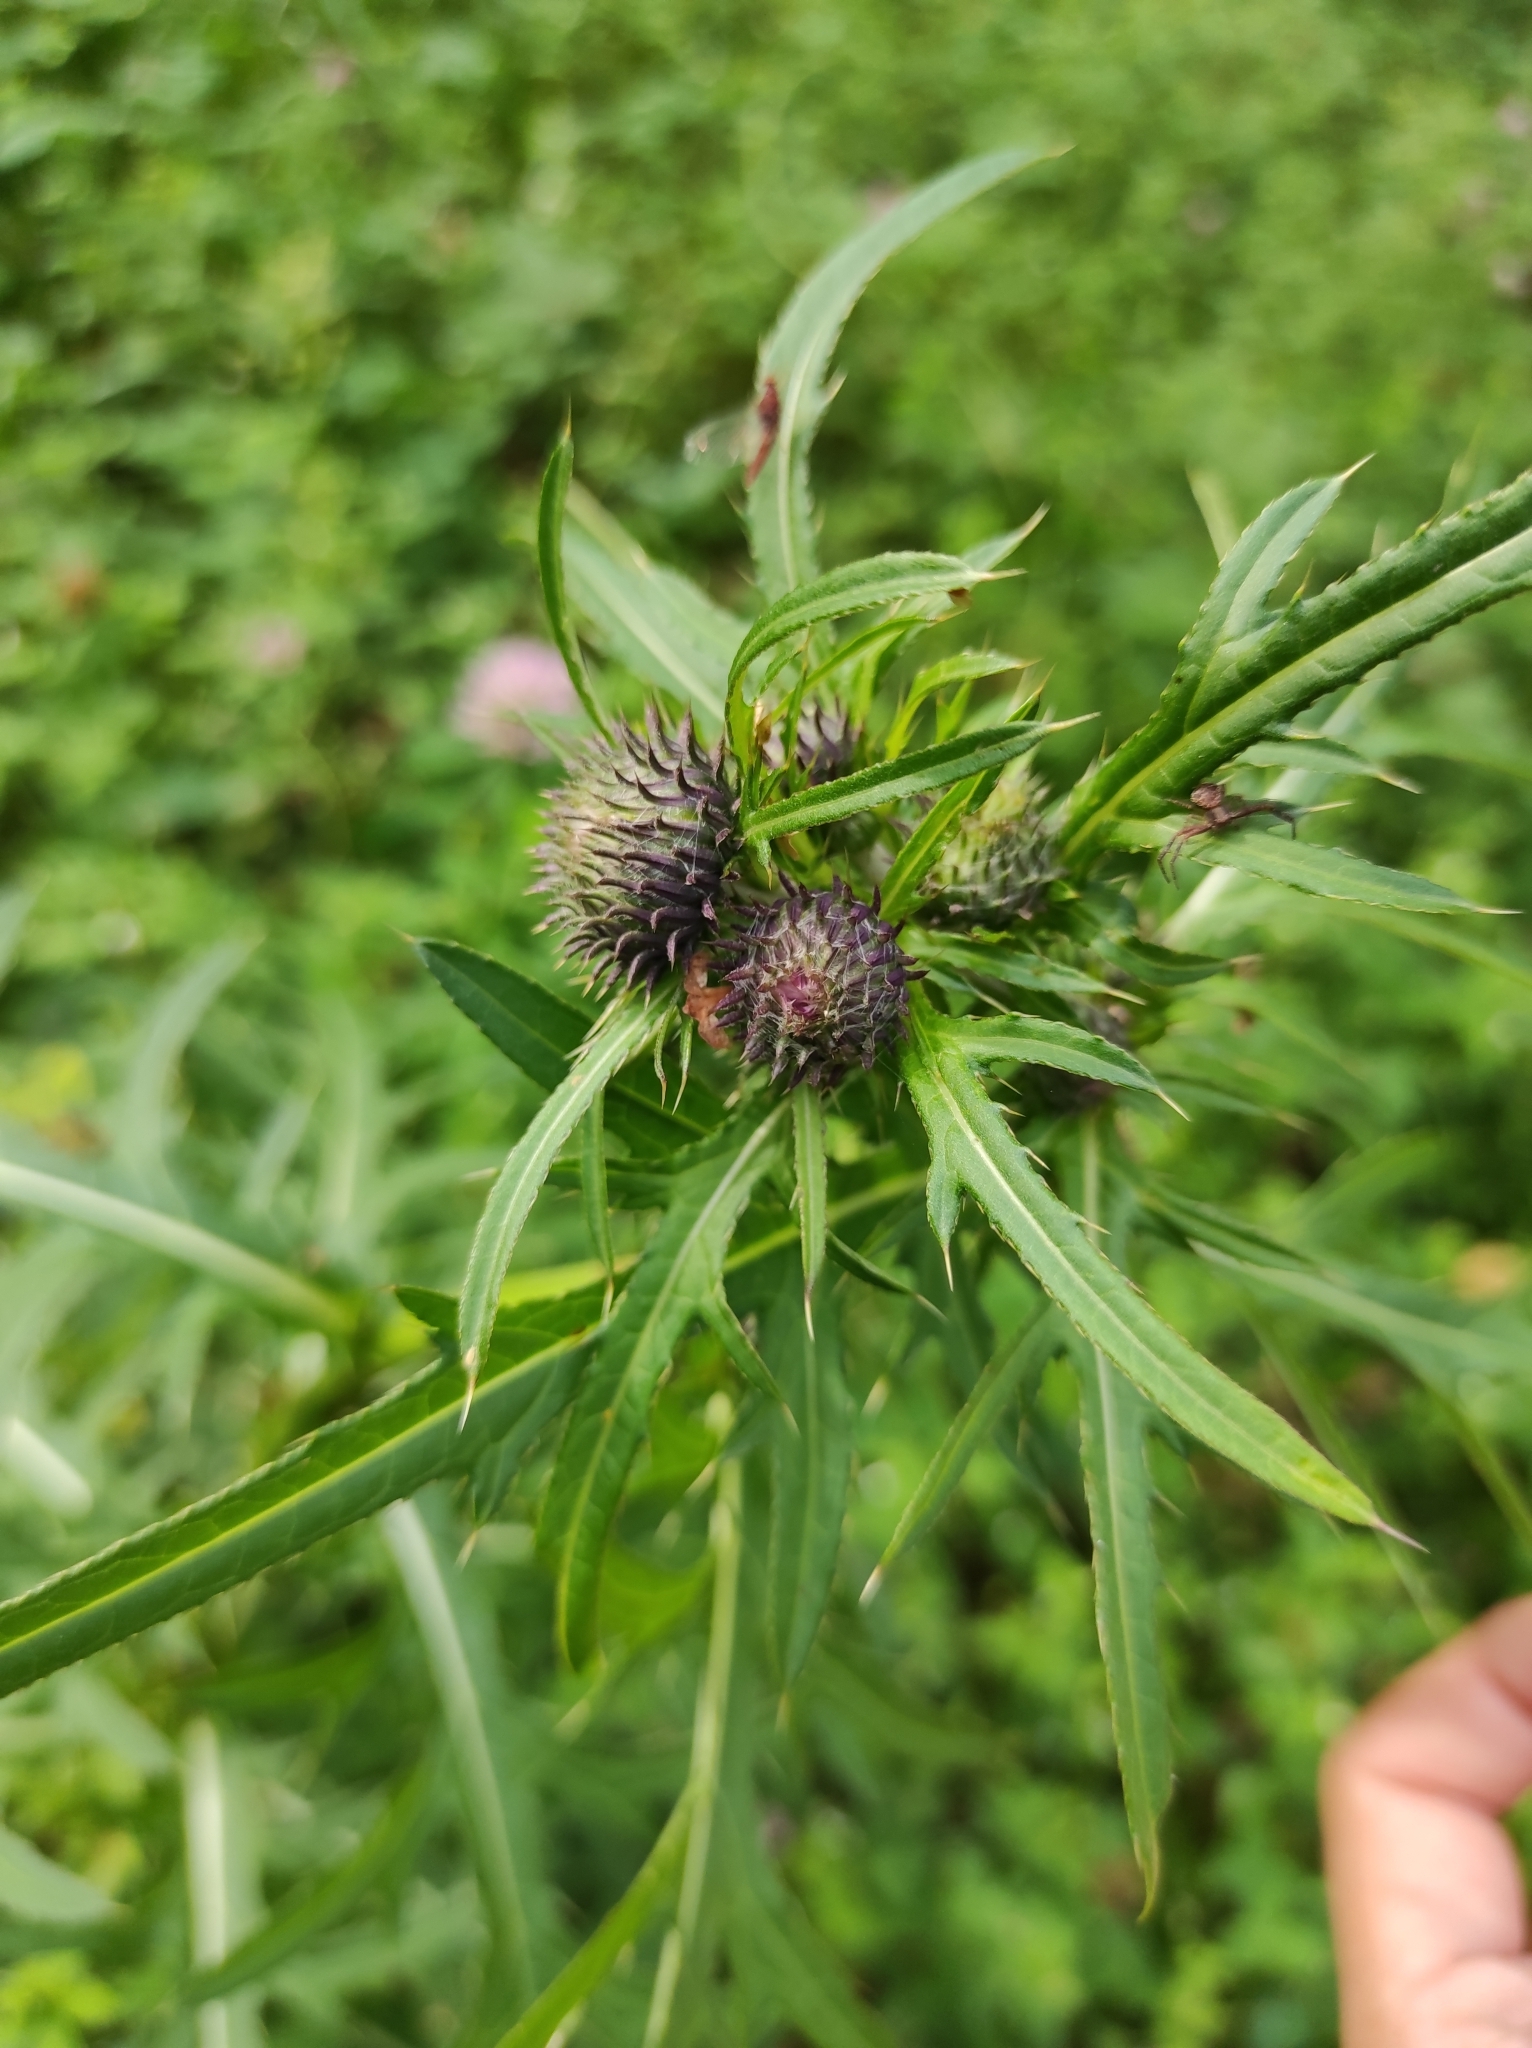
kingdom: Plantae
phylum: Tracheophyta
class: Magnoliopsida
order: Asterales
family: Asteraceae
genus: Cirsium
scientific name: Cirsium pendulum
